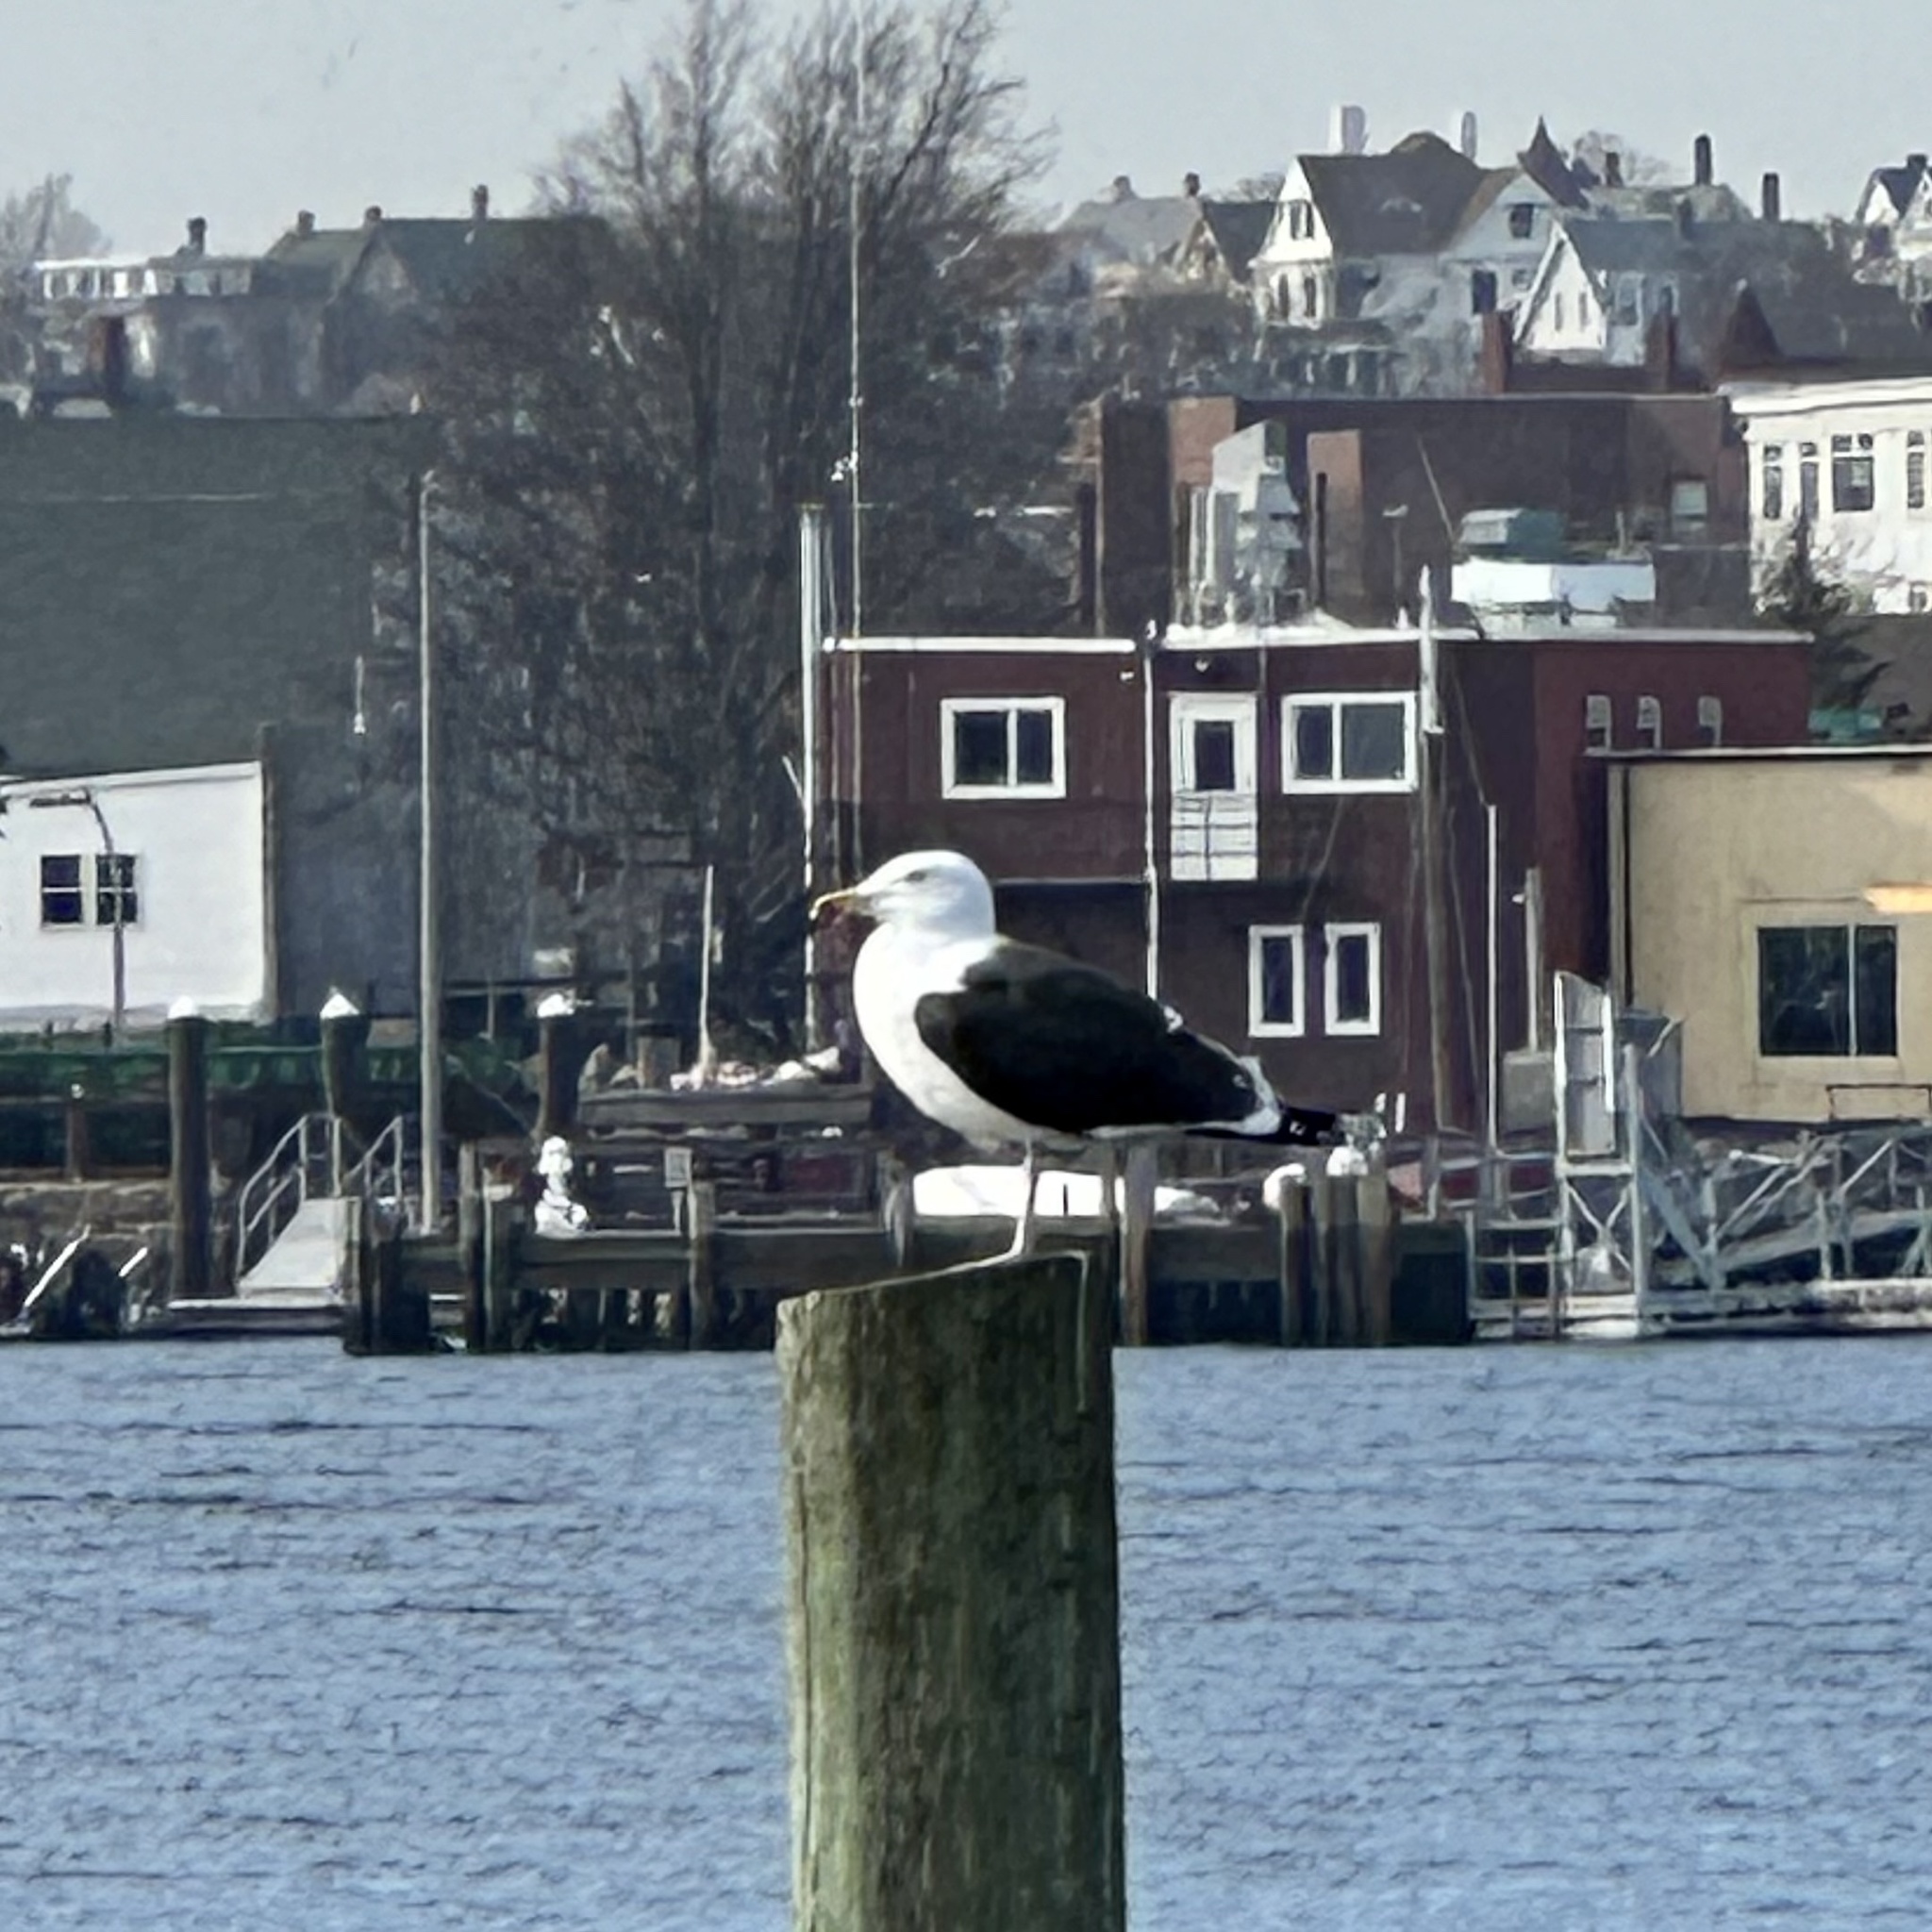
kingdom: Animalia
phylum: Chordata
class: Aves
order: Charadriiformes
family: Laridae
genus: Larus
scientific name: Larus marinus
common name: Great black-backed gull
